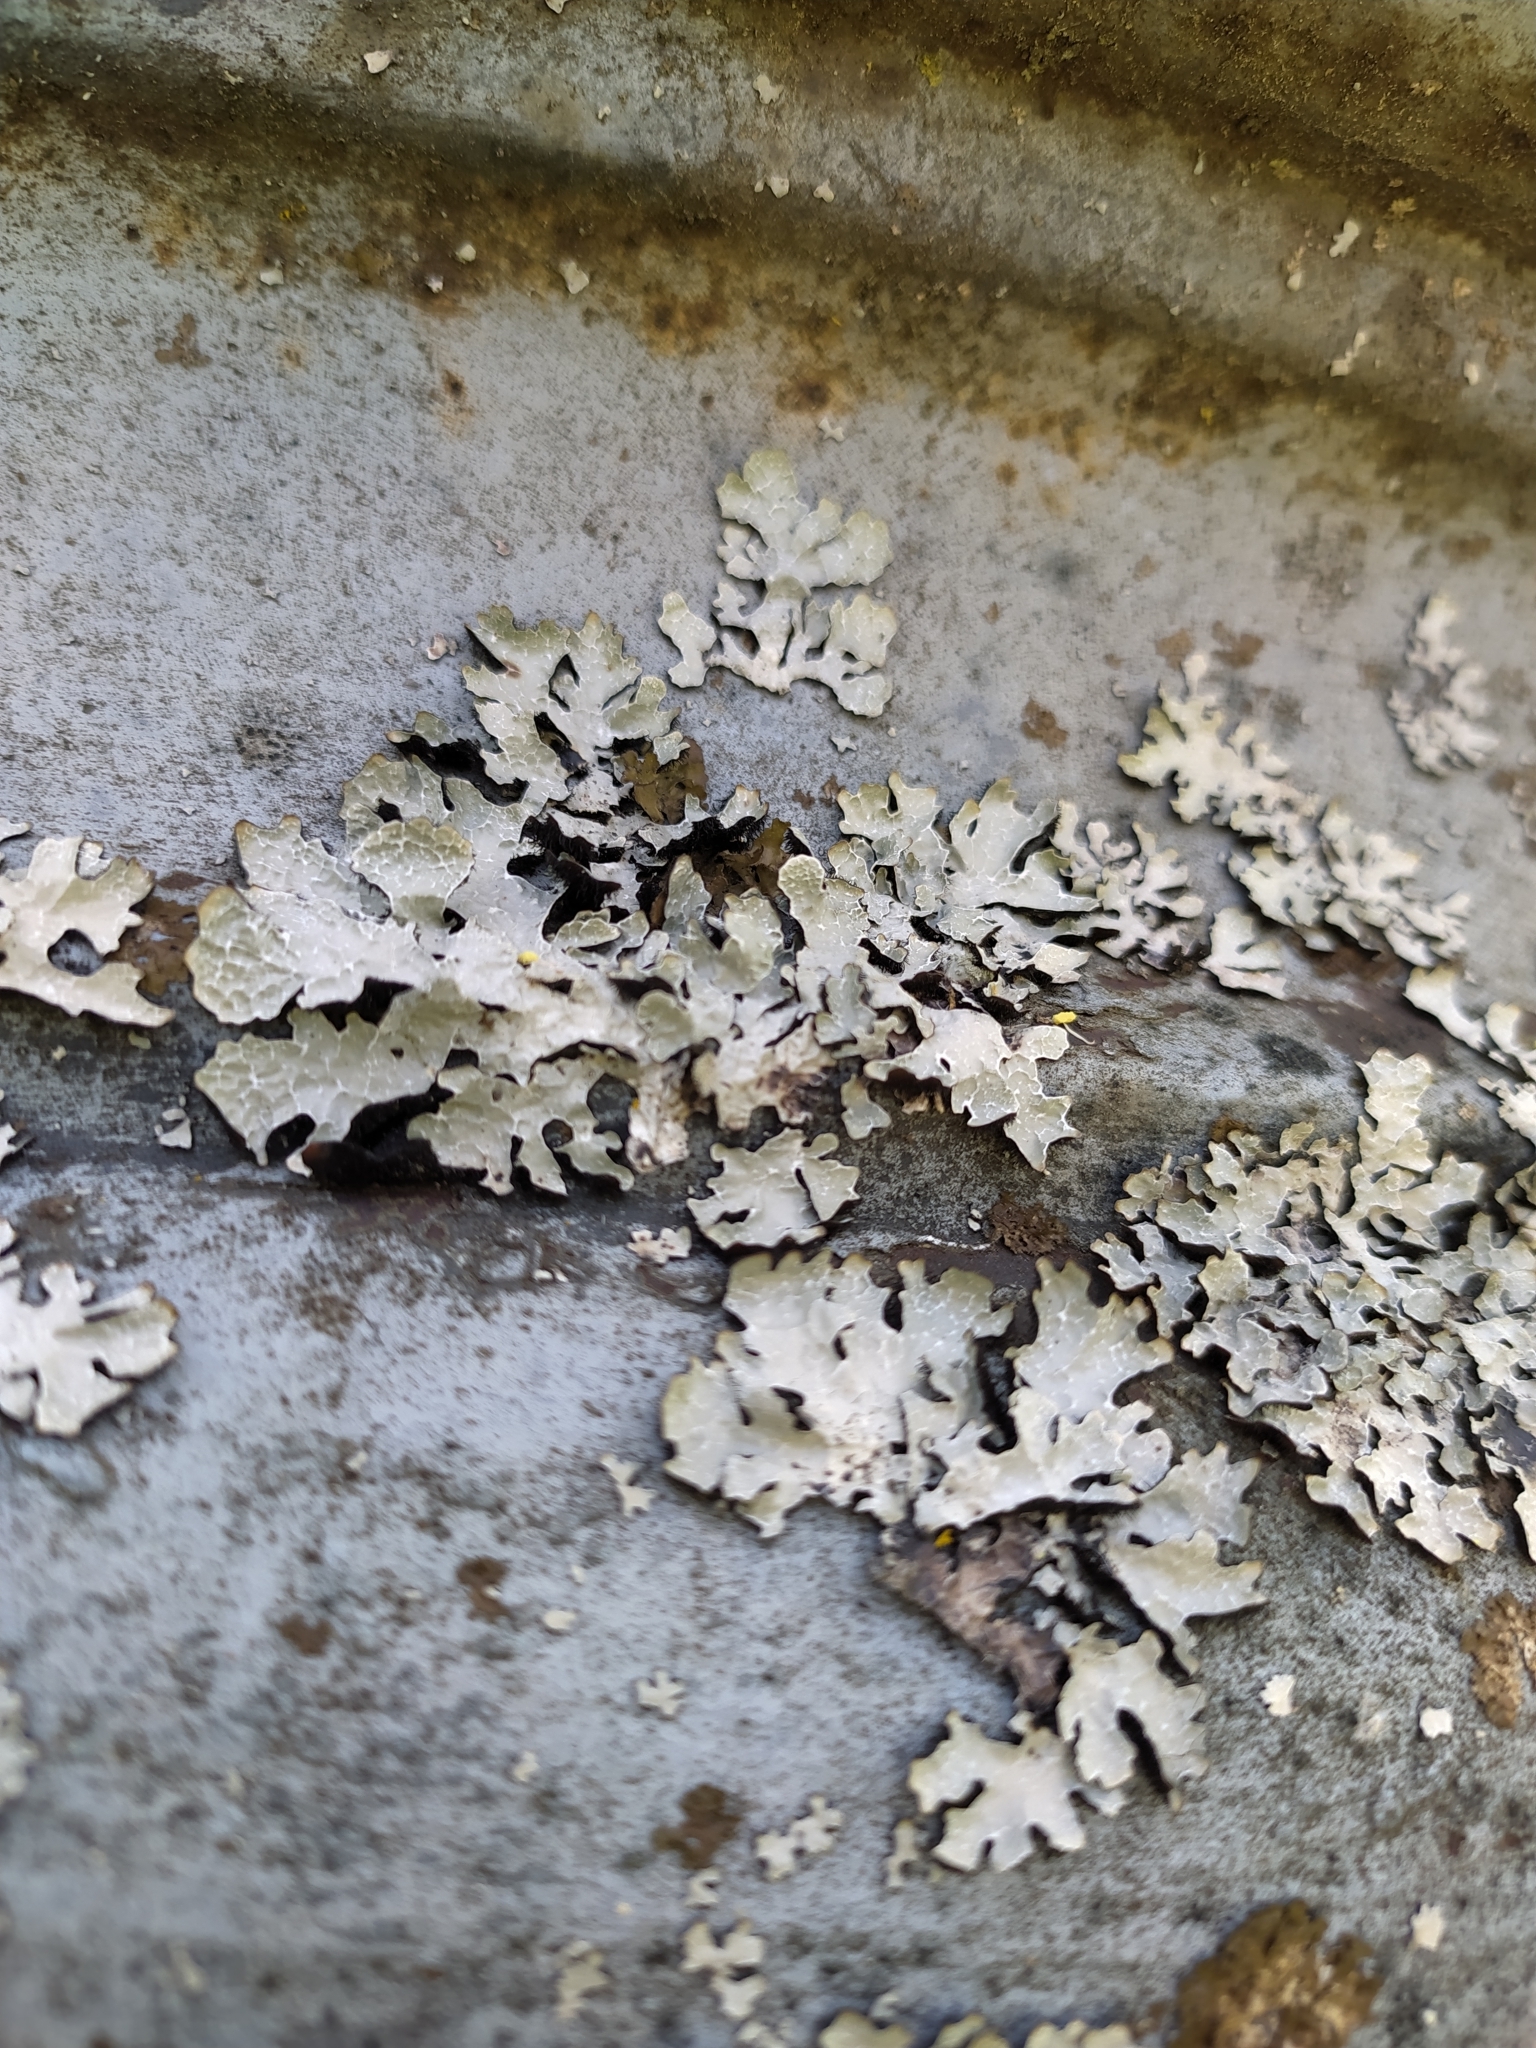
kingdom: Fungi
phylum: Ascomycota
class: Lecanoromycetes
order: Lecanorales
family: Parmeliaceae
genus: Parmelia
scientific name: Parmelia sulcata
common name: Netted shield lichen
